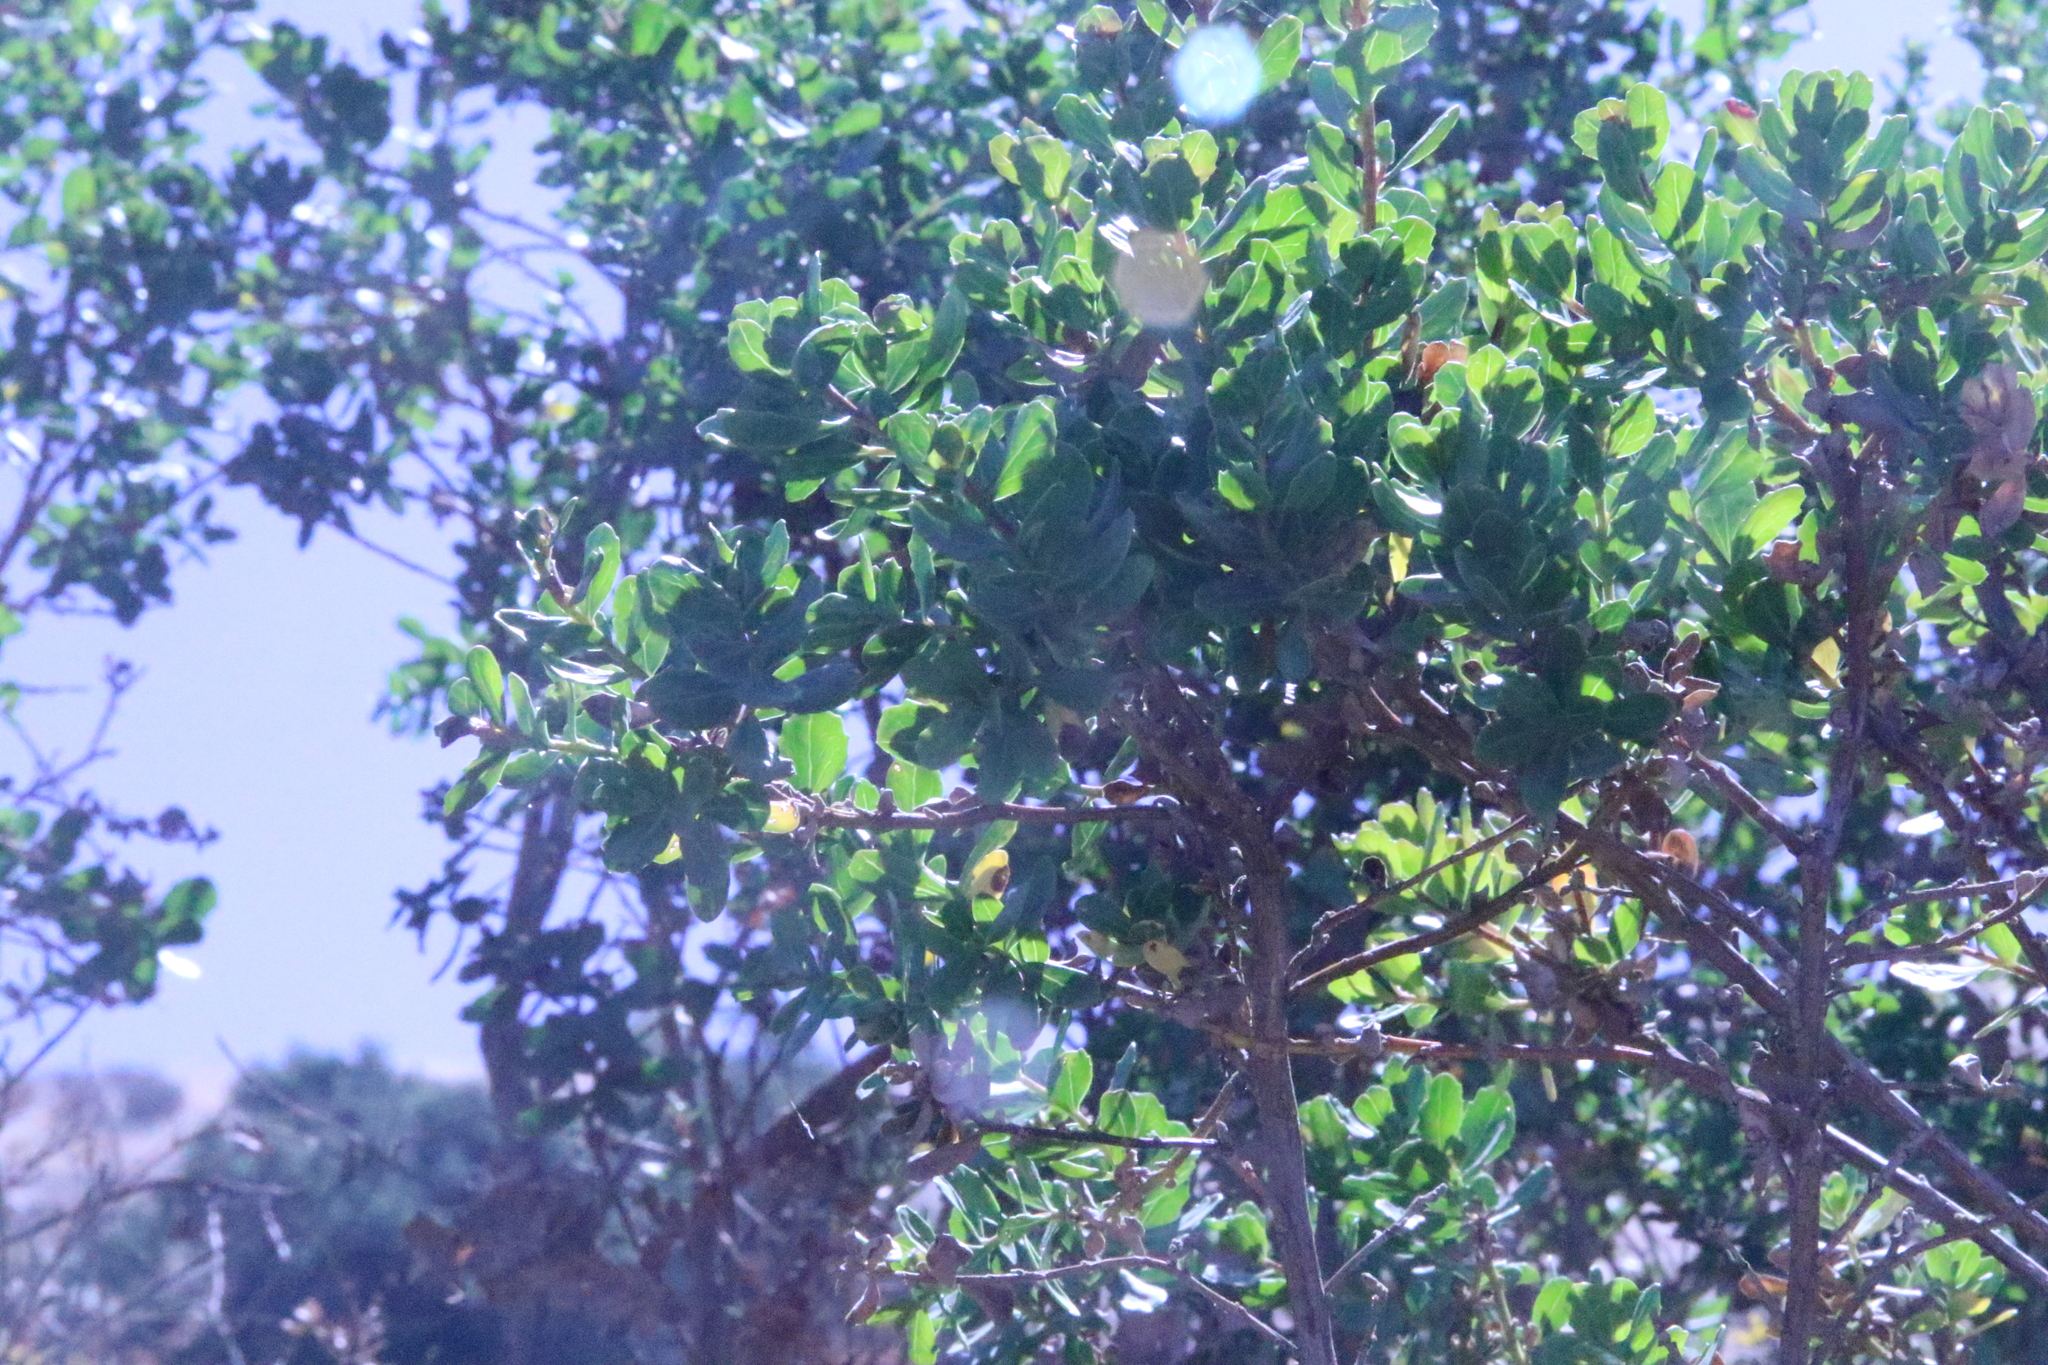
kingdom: Plantae
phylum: Tracheophyta
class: Magnoliopsida
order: Asterales
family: Asteraceae
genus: Baccharis
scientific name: Baccharis pilularis
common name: Coyotebrush
